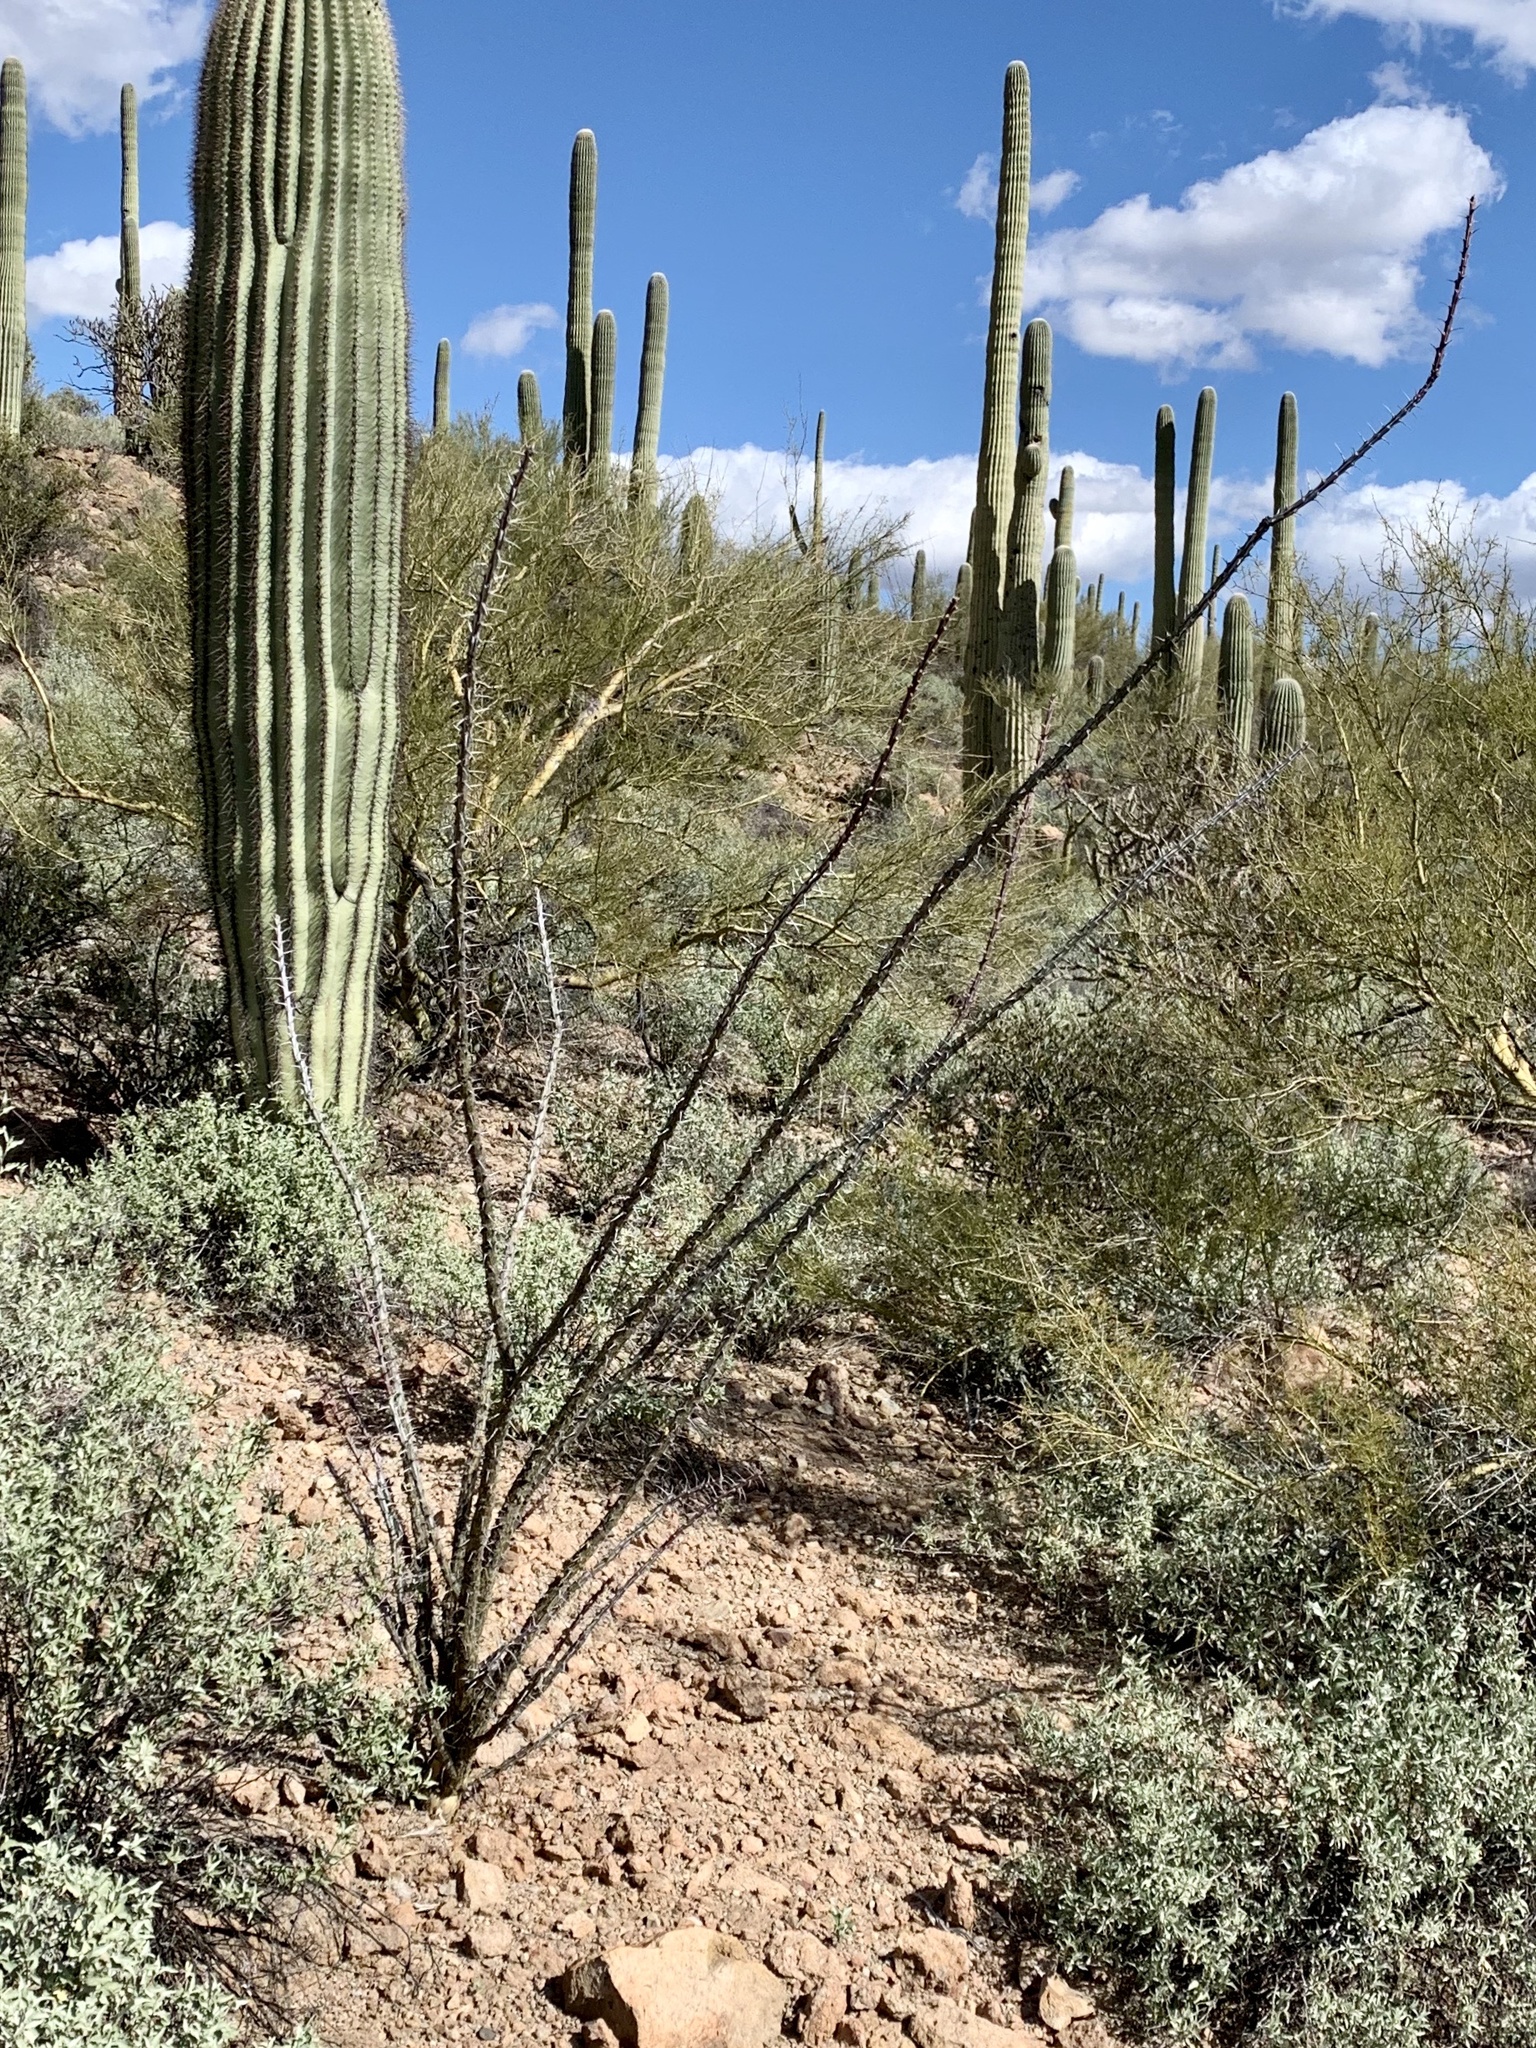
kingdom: Plantae
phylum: Tracheophyta
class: Magnoliopsida
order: Ericales
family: Fouquieriaceae
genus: Fouquieria
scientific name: Fouquieria splendens
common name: Vine-cactus
